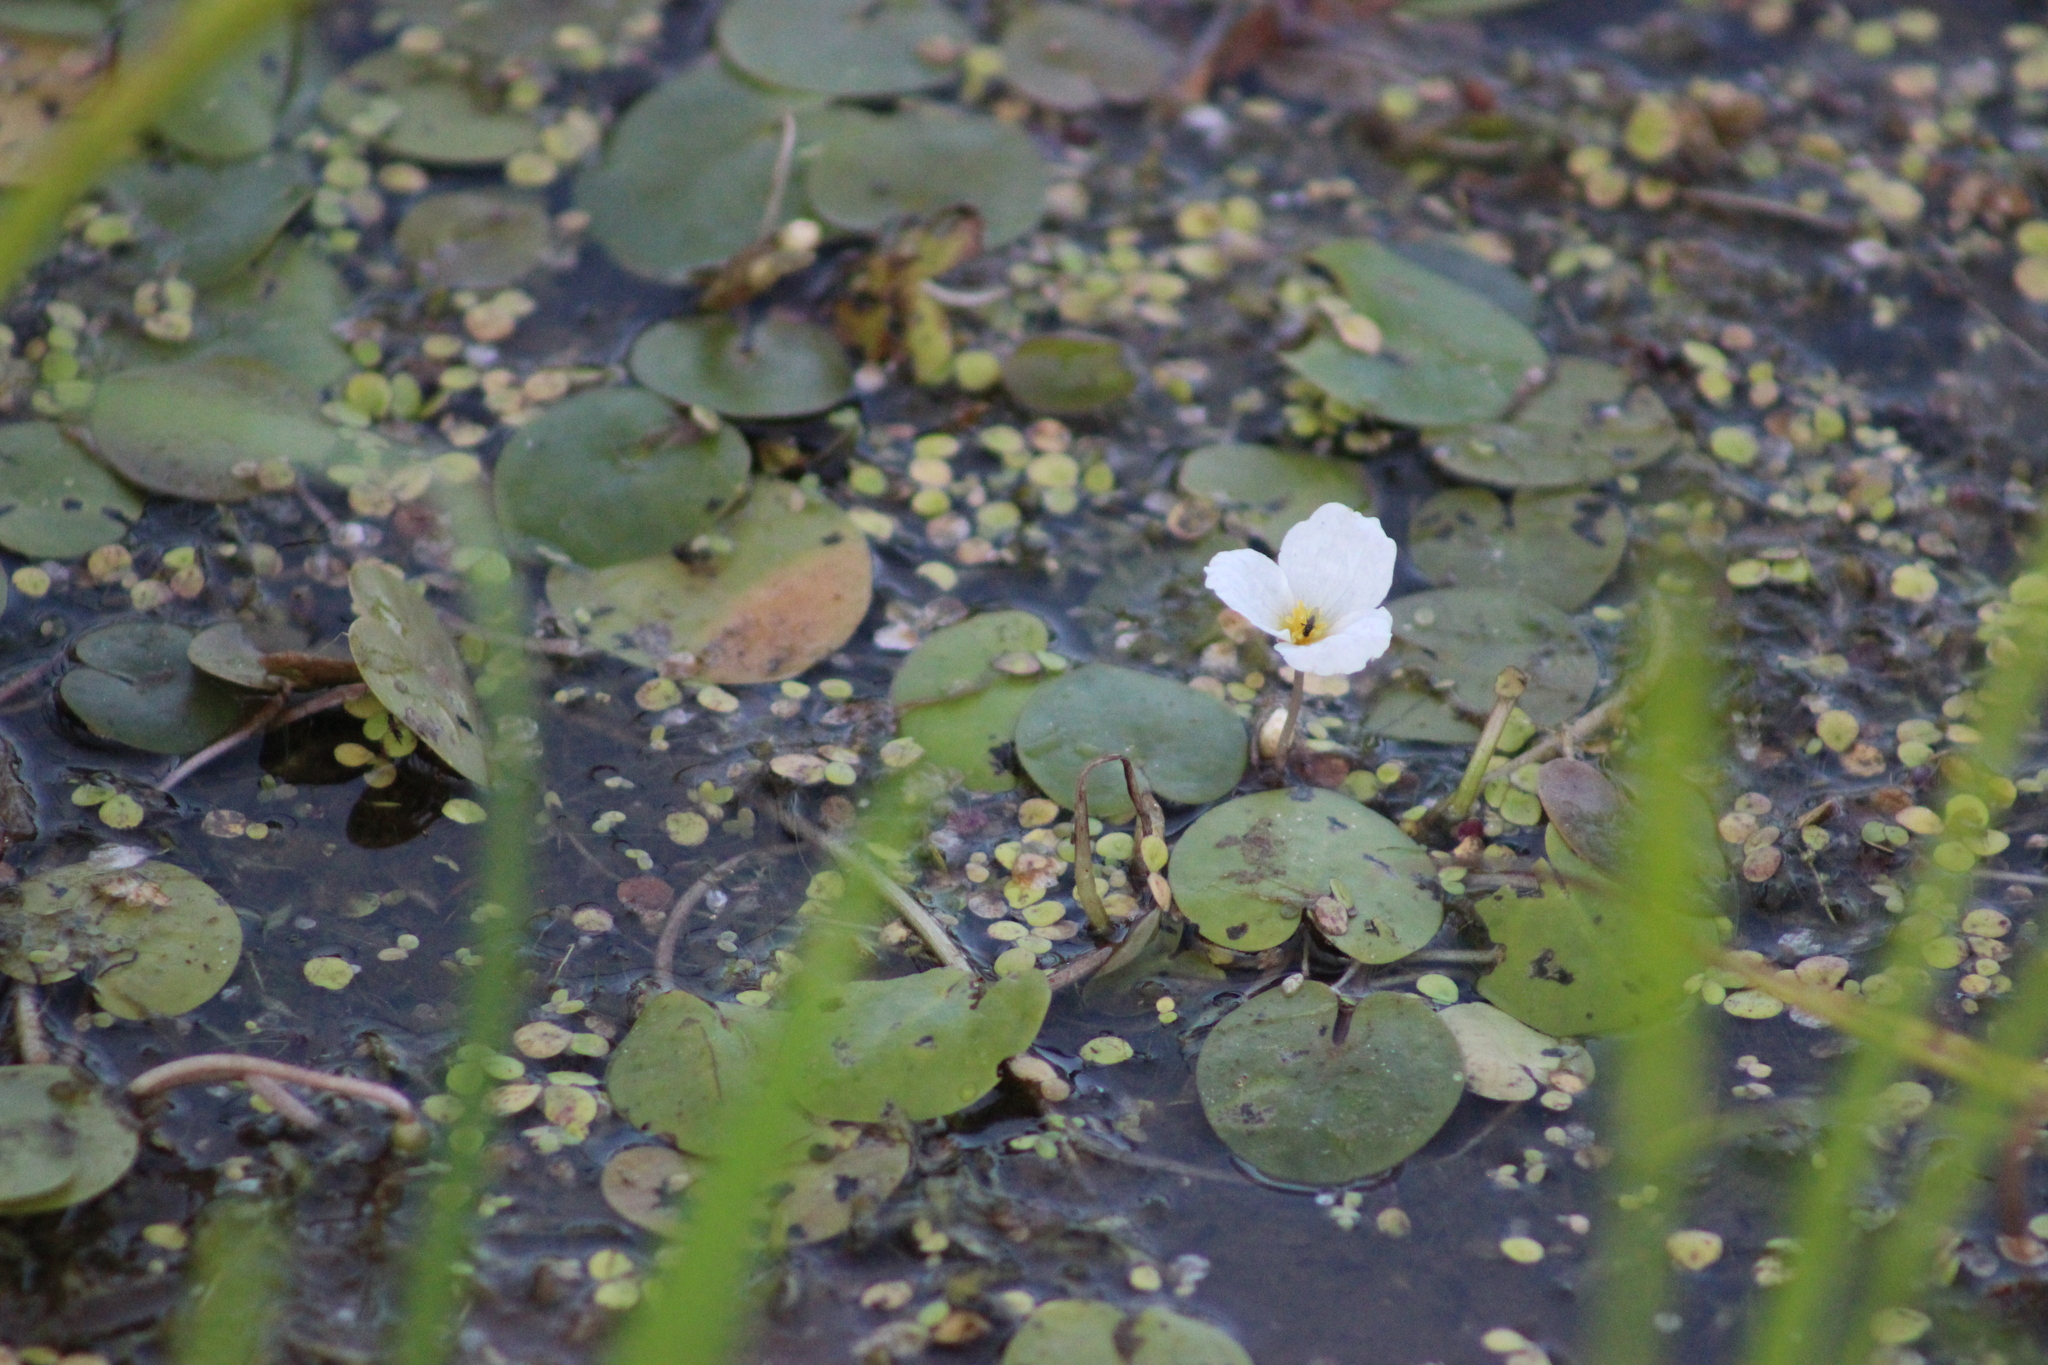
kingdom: Plantae
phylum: Tracheophyta
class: Liliopsida
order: Alismatales
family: Hydrocharitaceae
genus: Hydrocharis
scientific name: Hydrocharis morsus-ranae
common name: Frogbit
